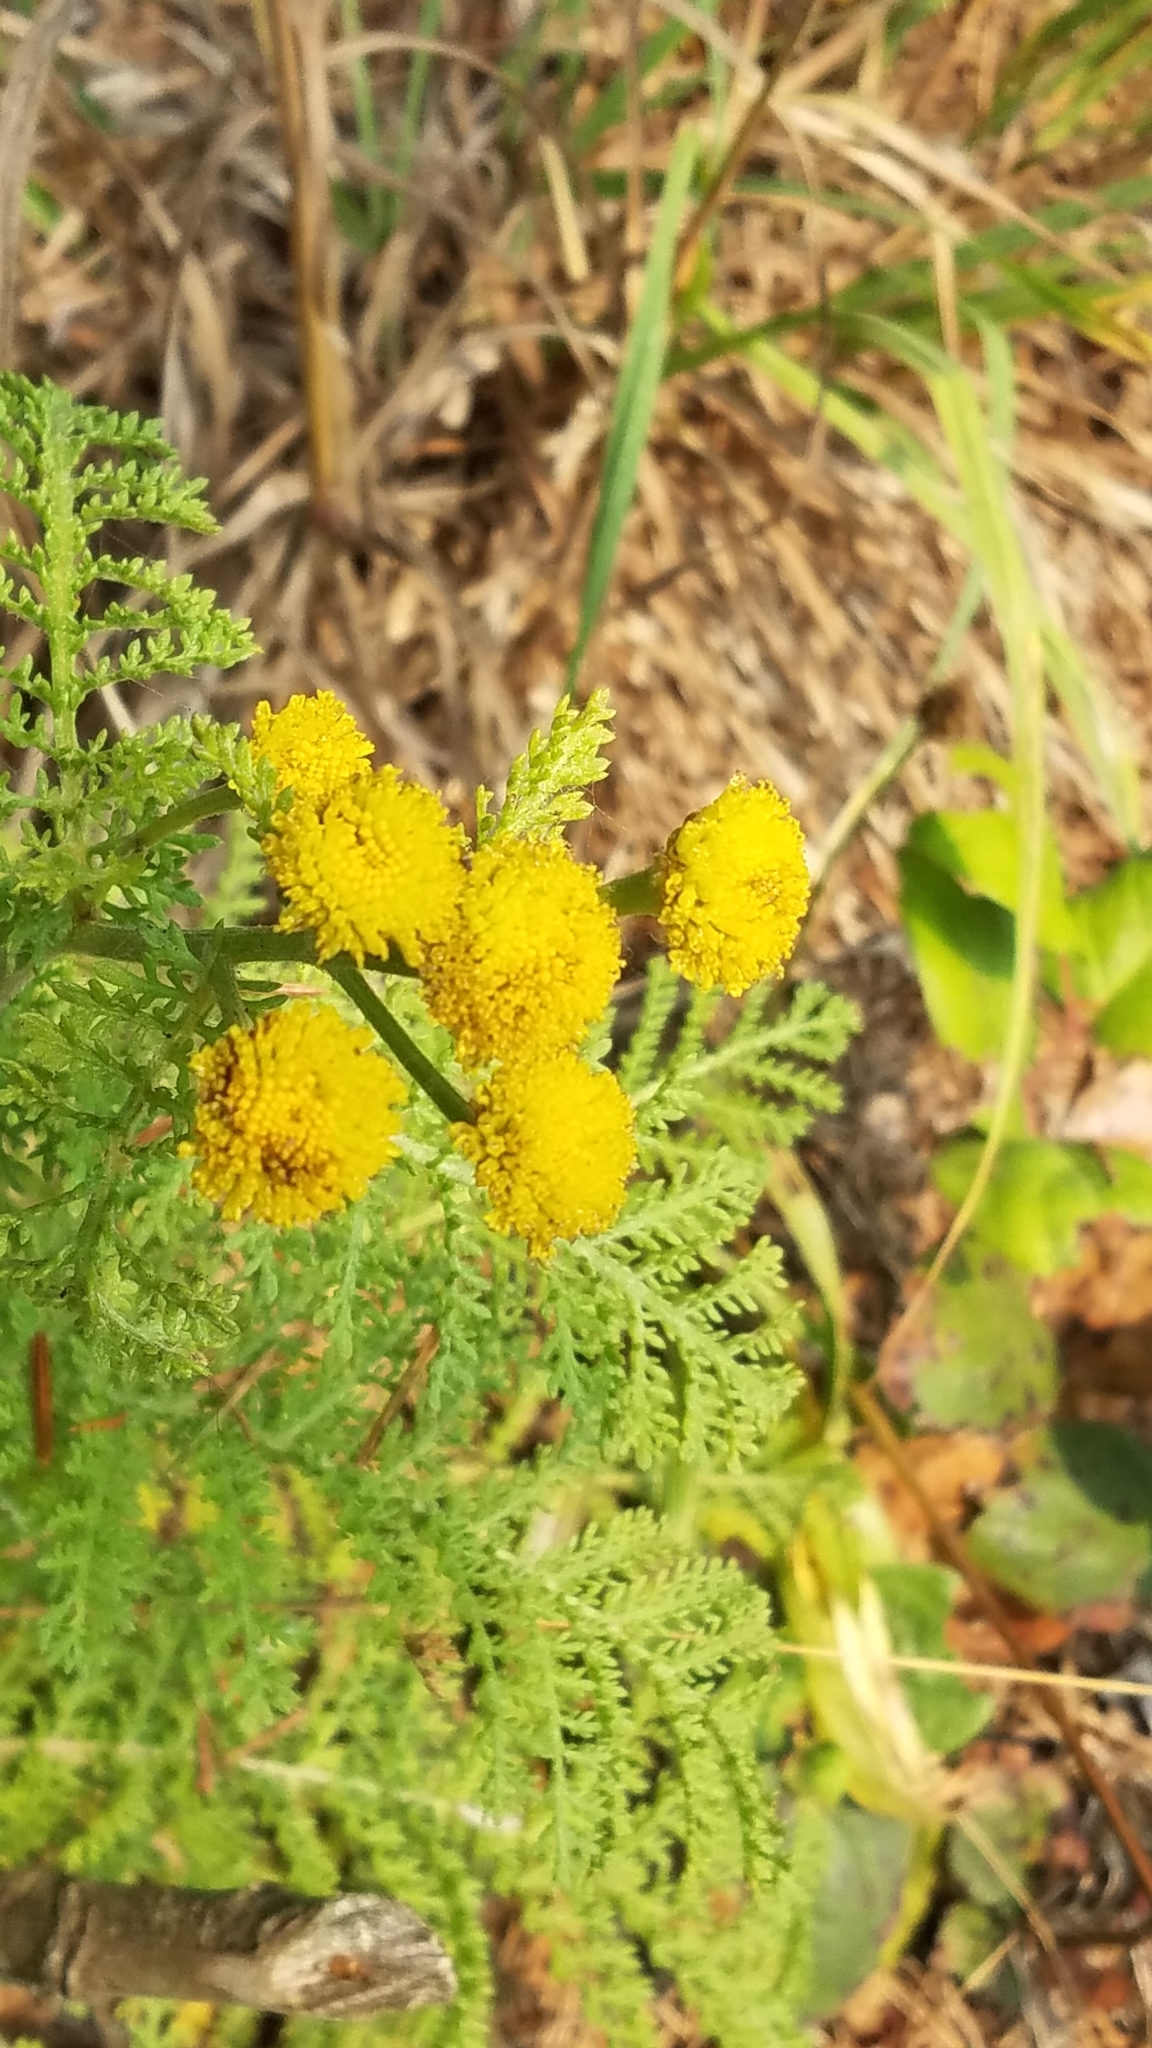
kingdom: Plantae
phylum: Tracheophyta
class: Magnoliopsida
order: Asterales
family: Asteraceae
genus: Tanacetum
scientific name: Tanacetum bipinnatum
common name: Dwarf tansy
